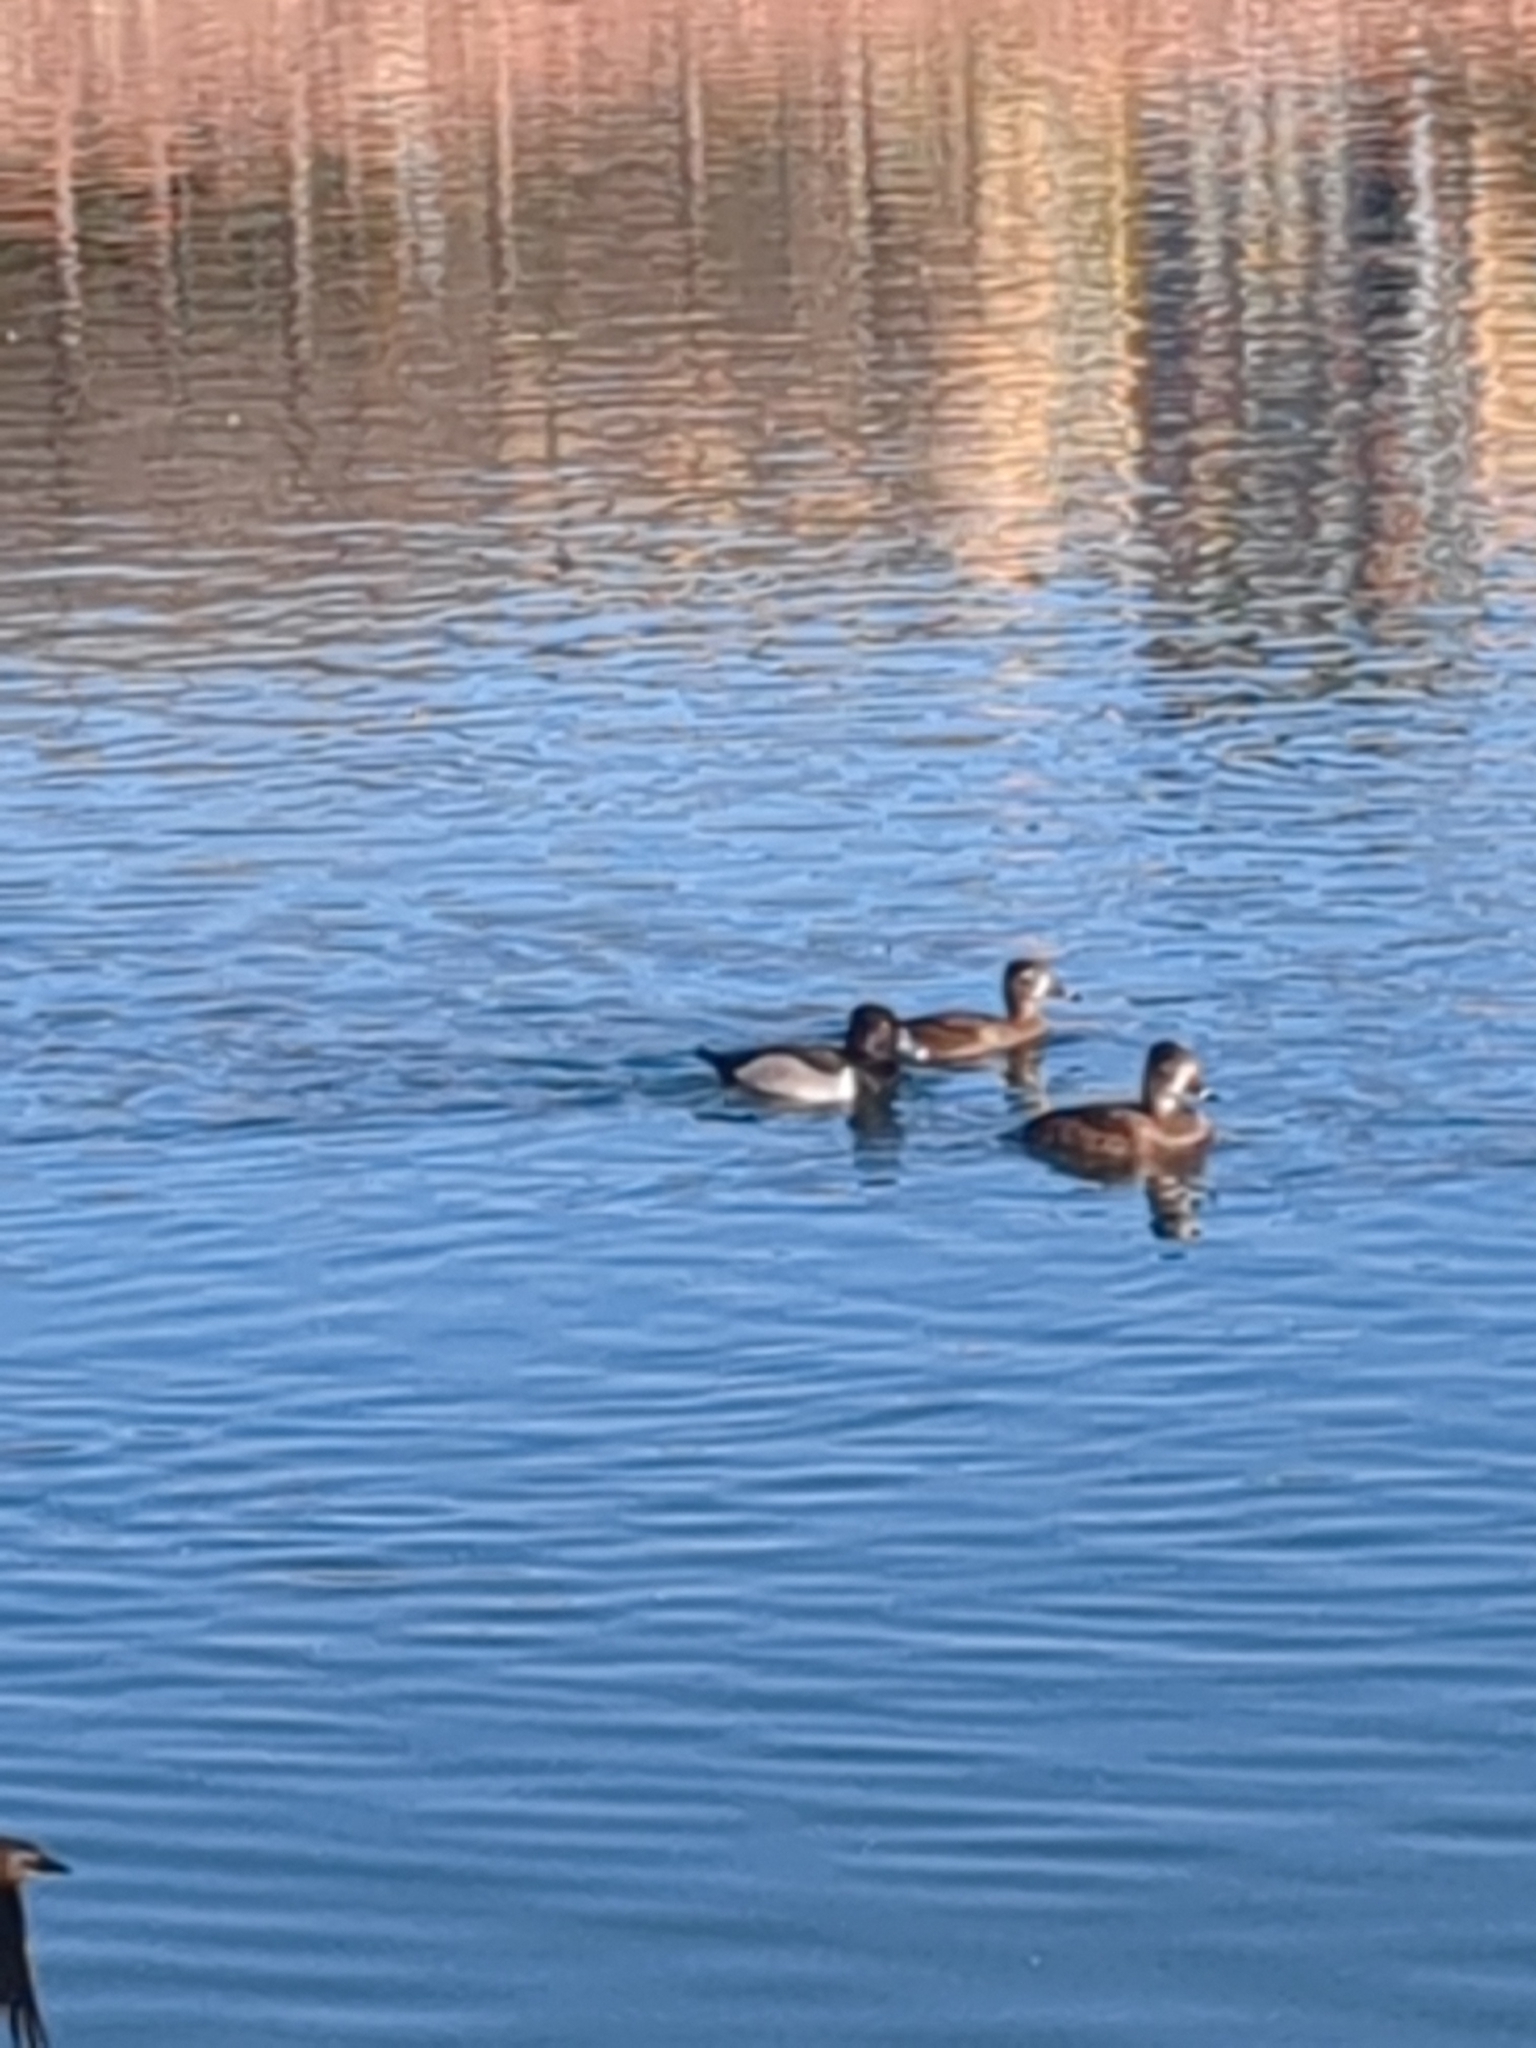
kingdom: Animalia
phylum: Chordata
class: Aves
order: Anseriformes
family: Anatidae
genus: Aythya
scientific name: Aythya collaris
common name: Ring-necked duck
